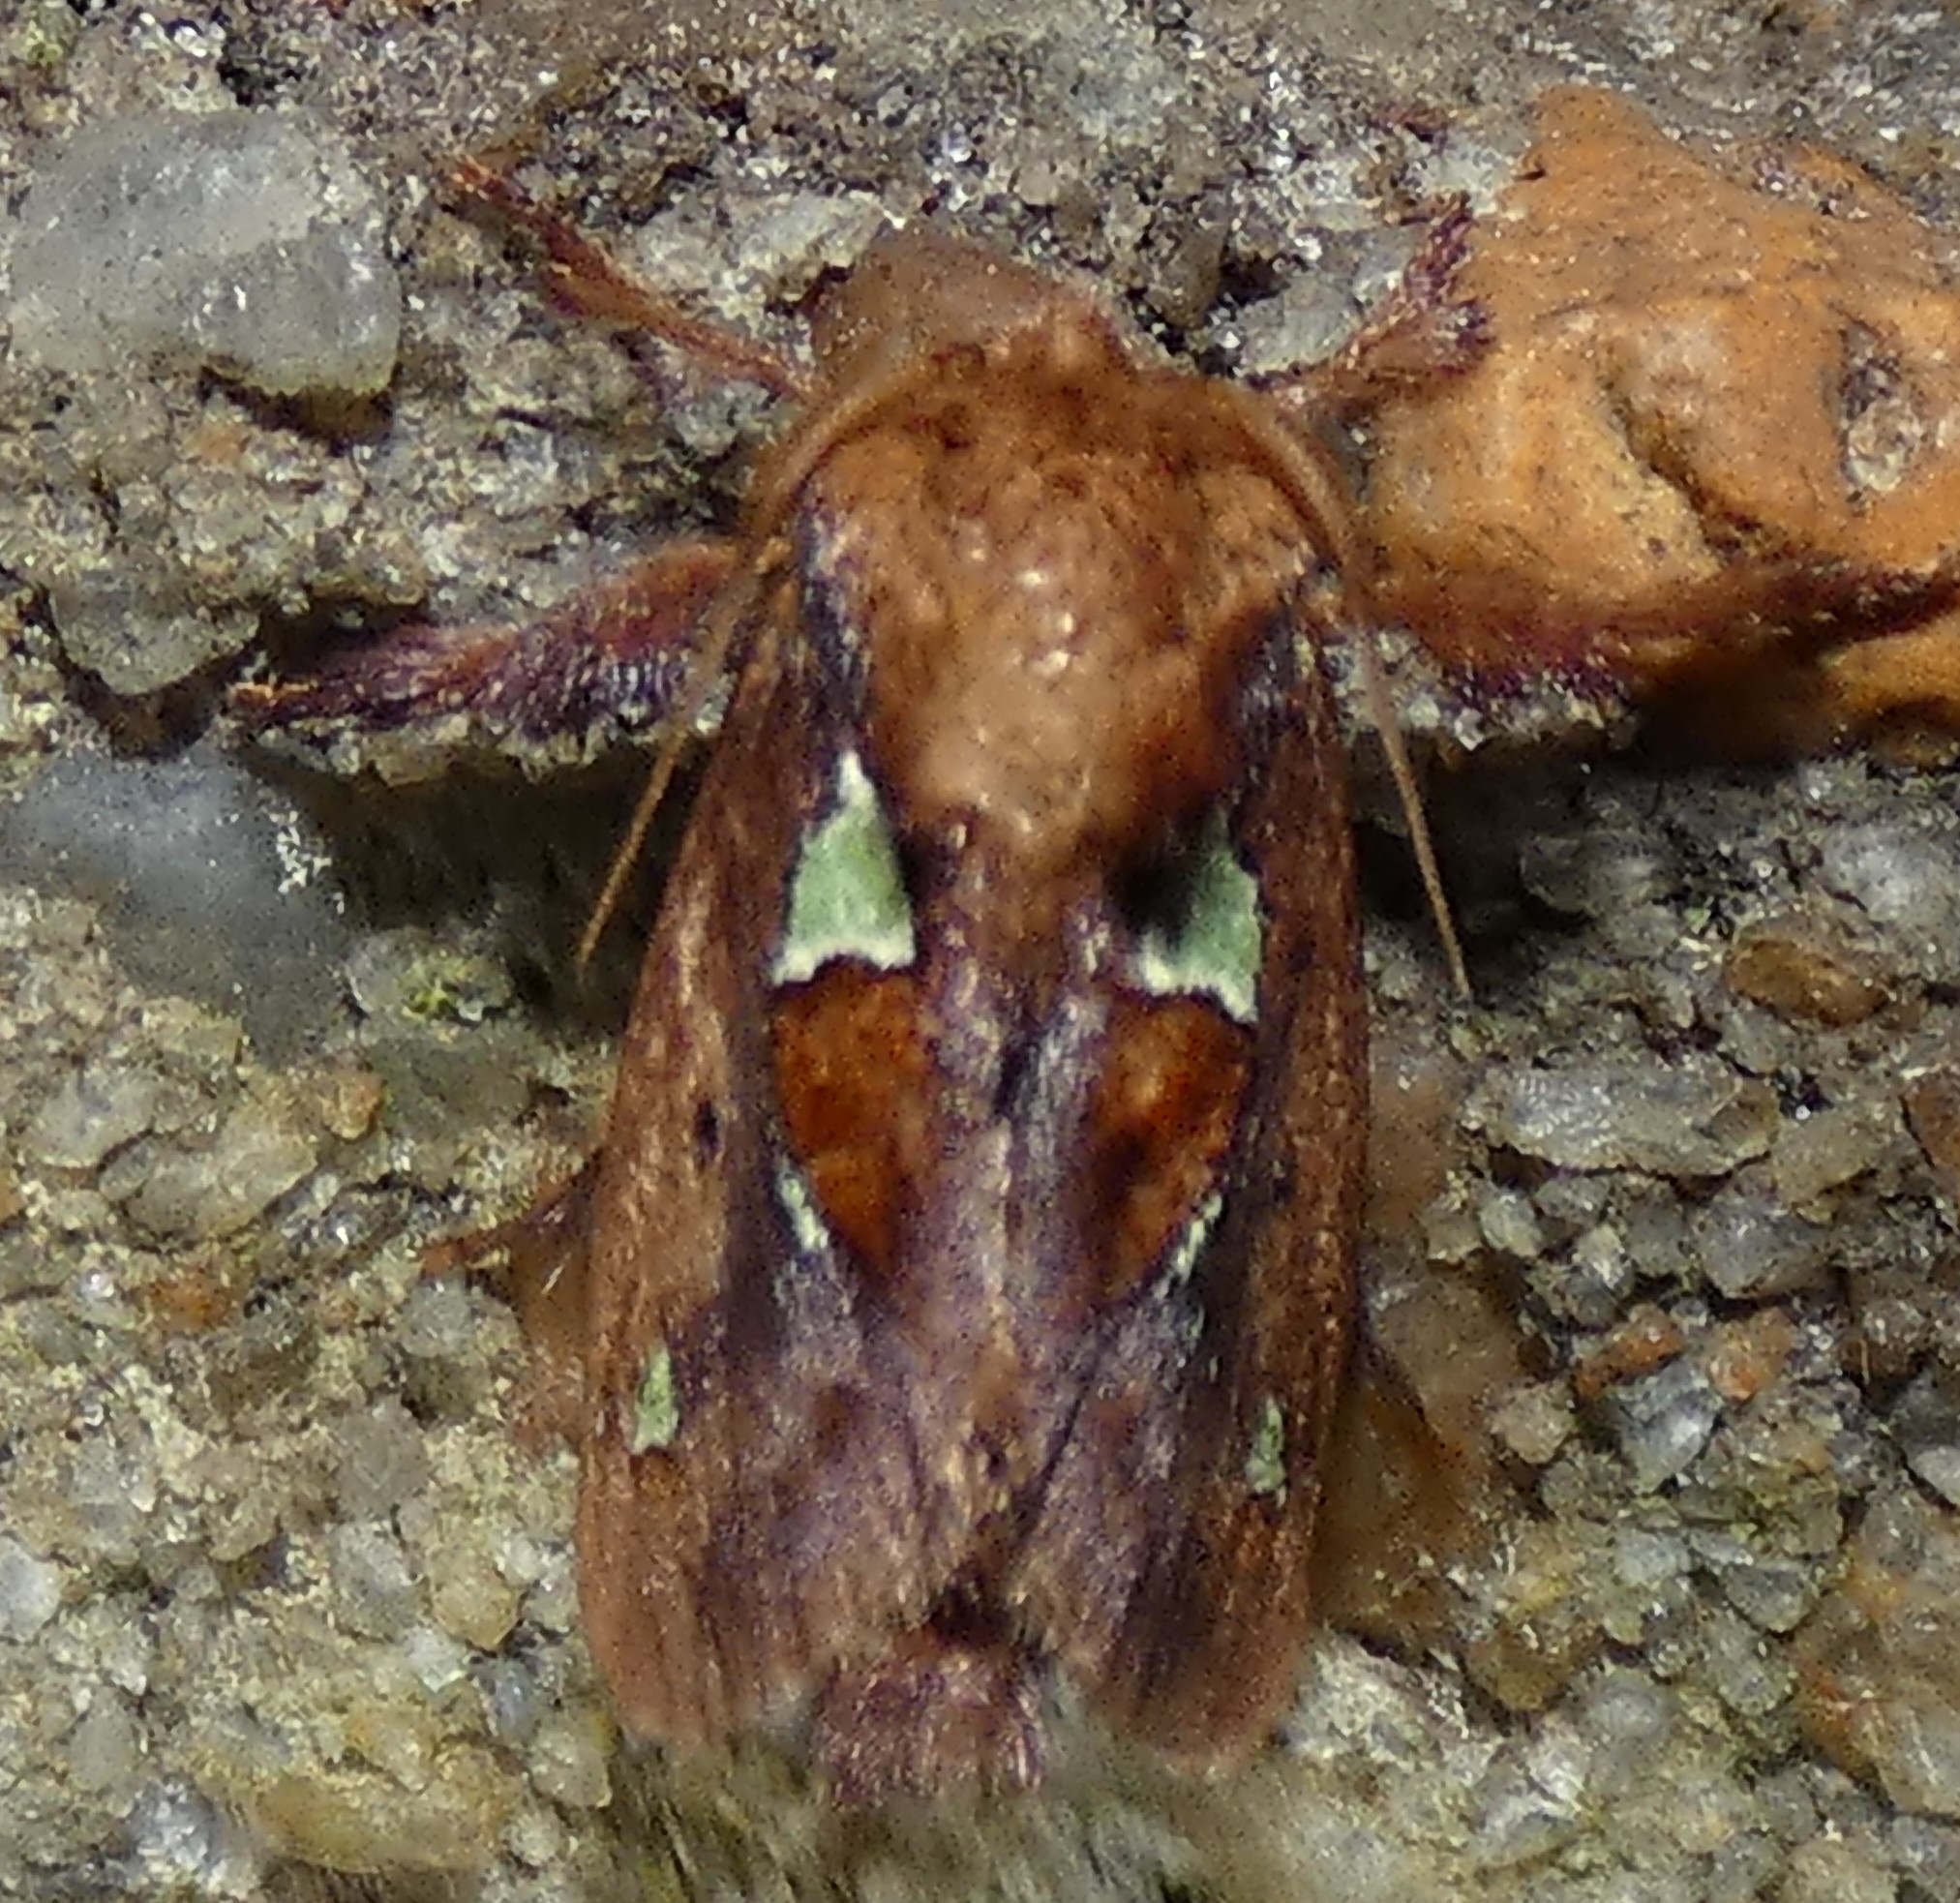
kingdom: Animalia
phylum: Arthropoda
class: Insecta
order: Lepidoptera
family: Limacodidae
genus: Euclea
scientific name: Euclea delphinii
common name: Spiny oak-slug moth
